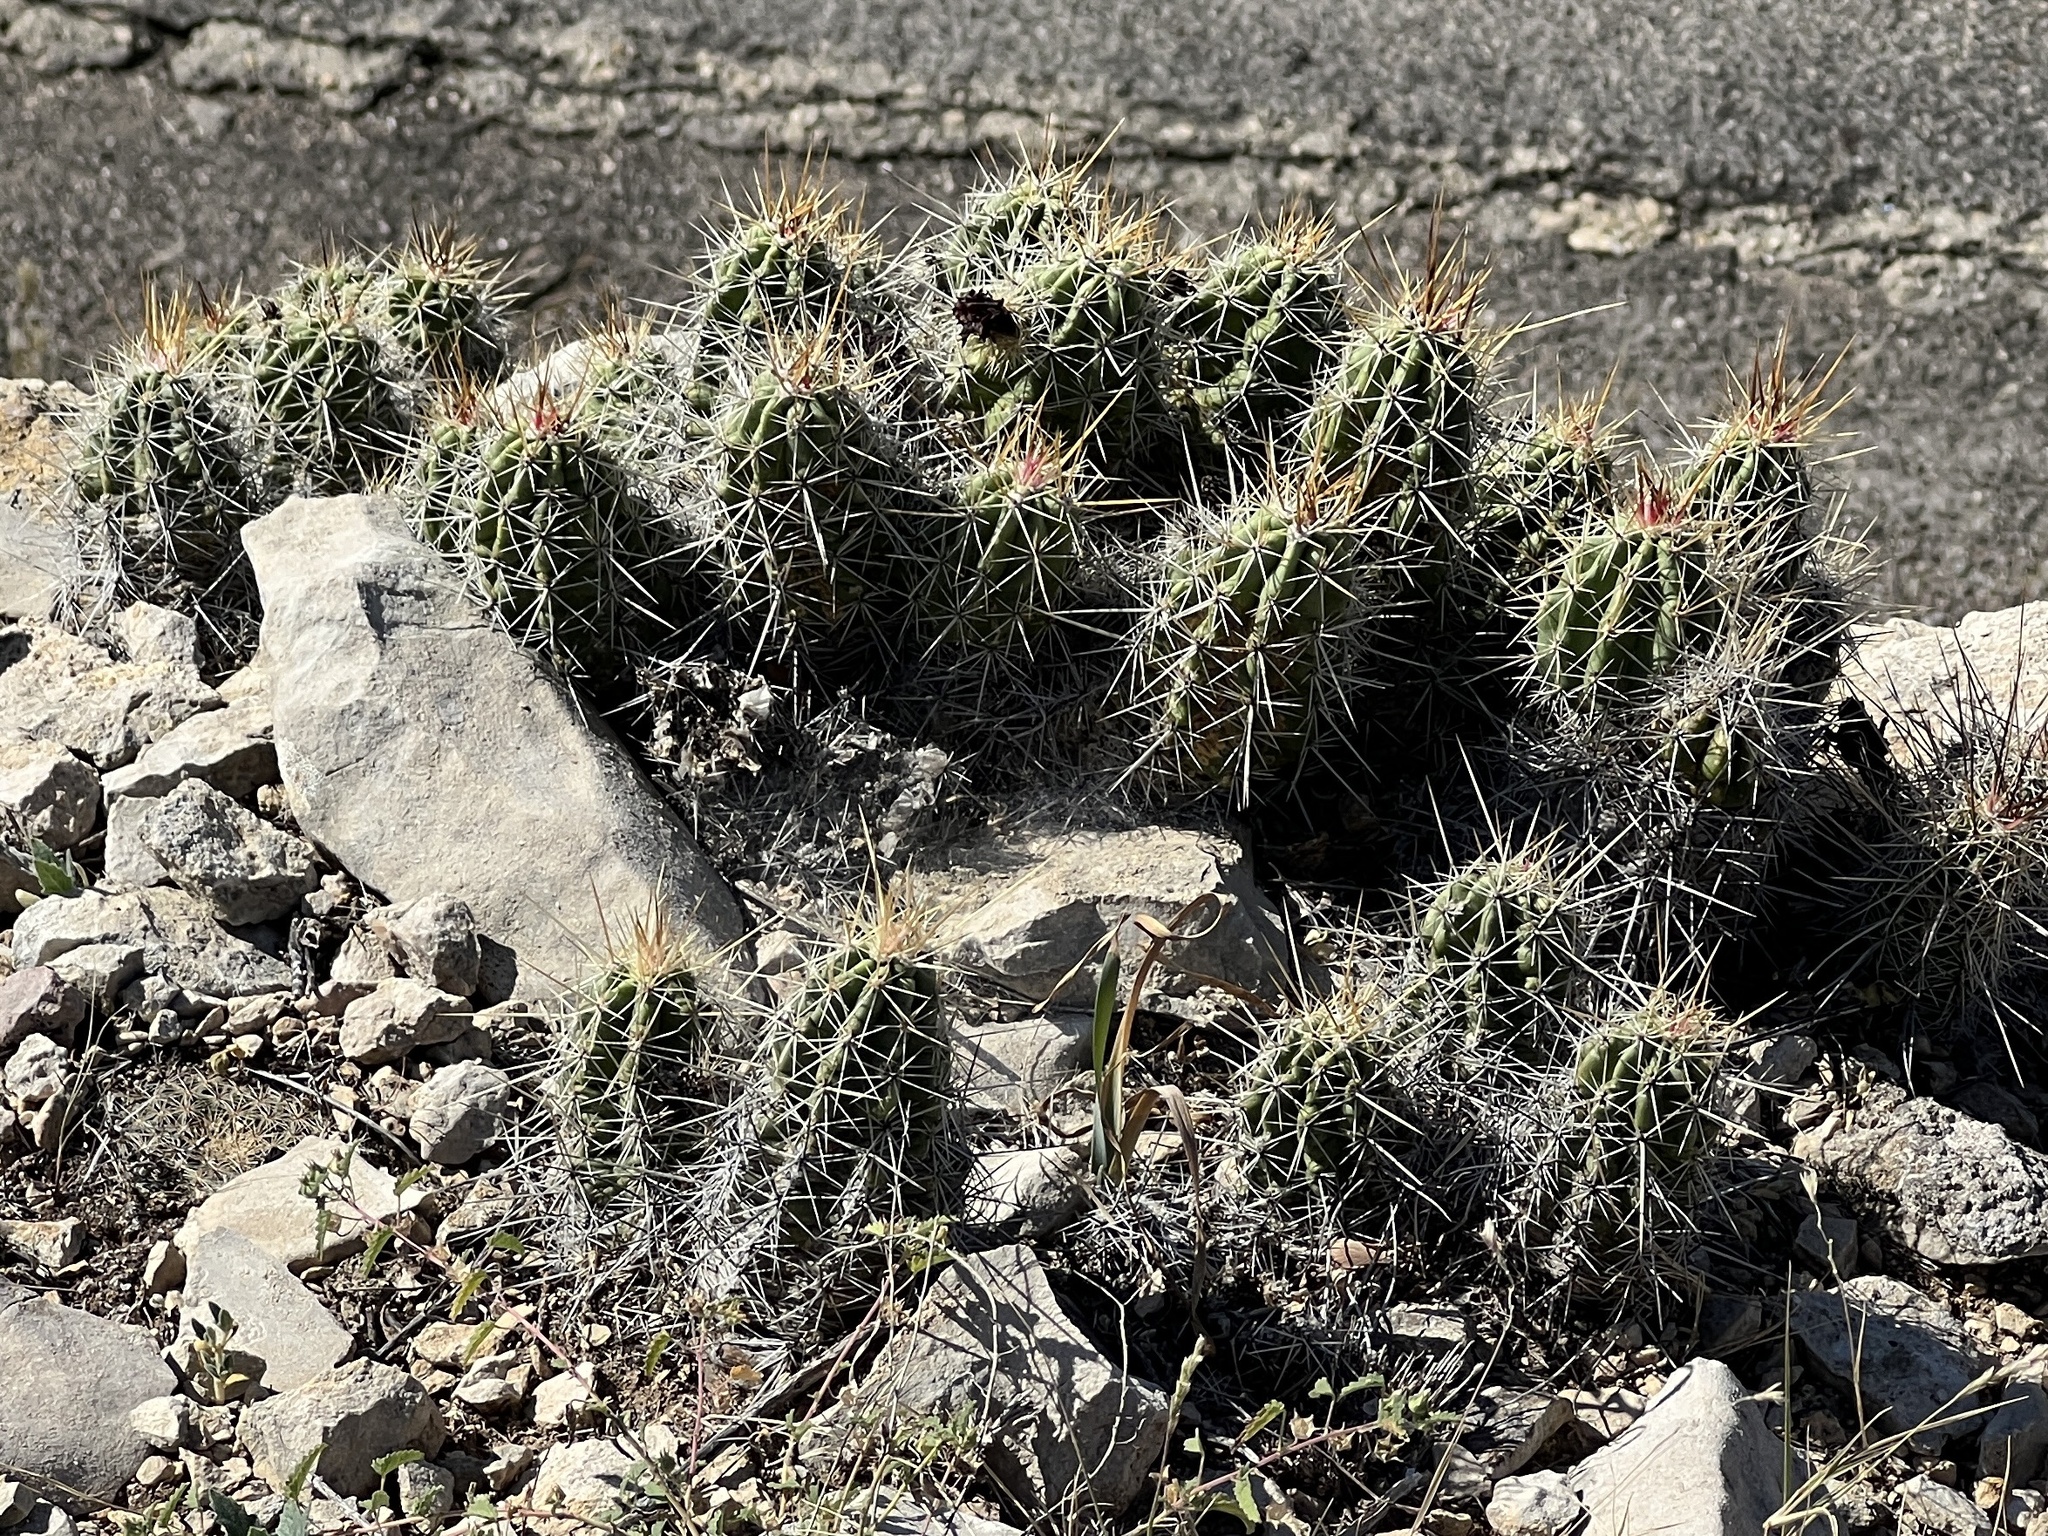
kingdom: Plantae
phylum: Tracheophyta
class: Magnoliopsida
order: Caryophyllales
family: Cactaceae
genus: Echinocereus
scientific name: Echinocereus enneacanthus
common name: Pitaya
